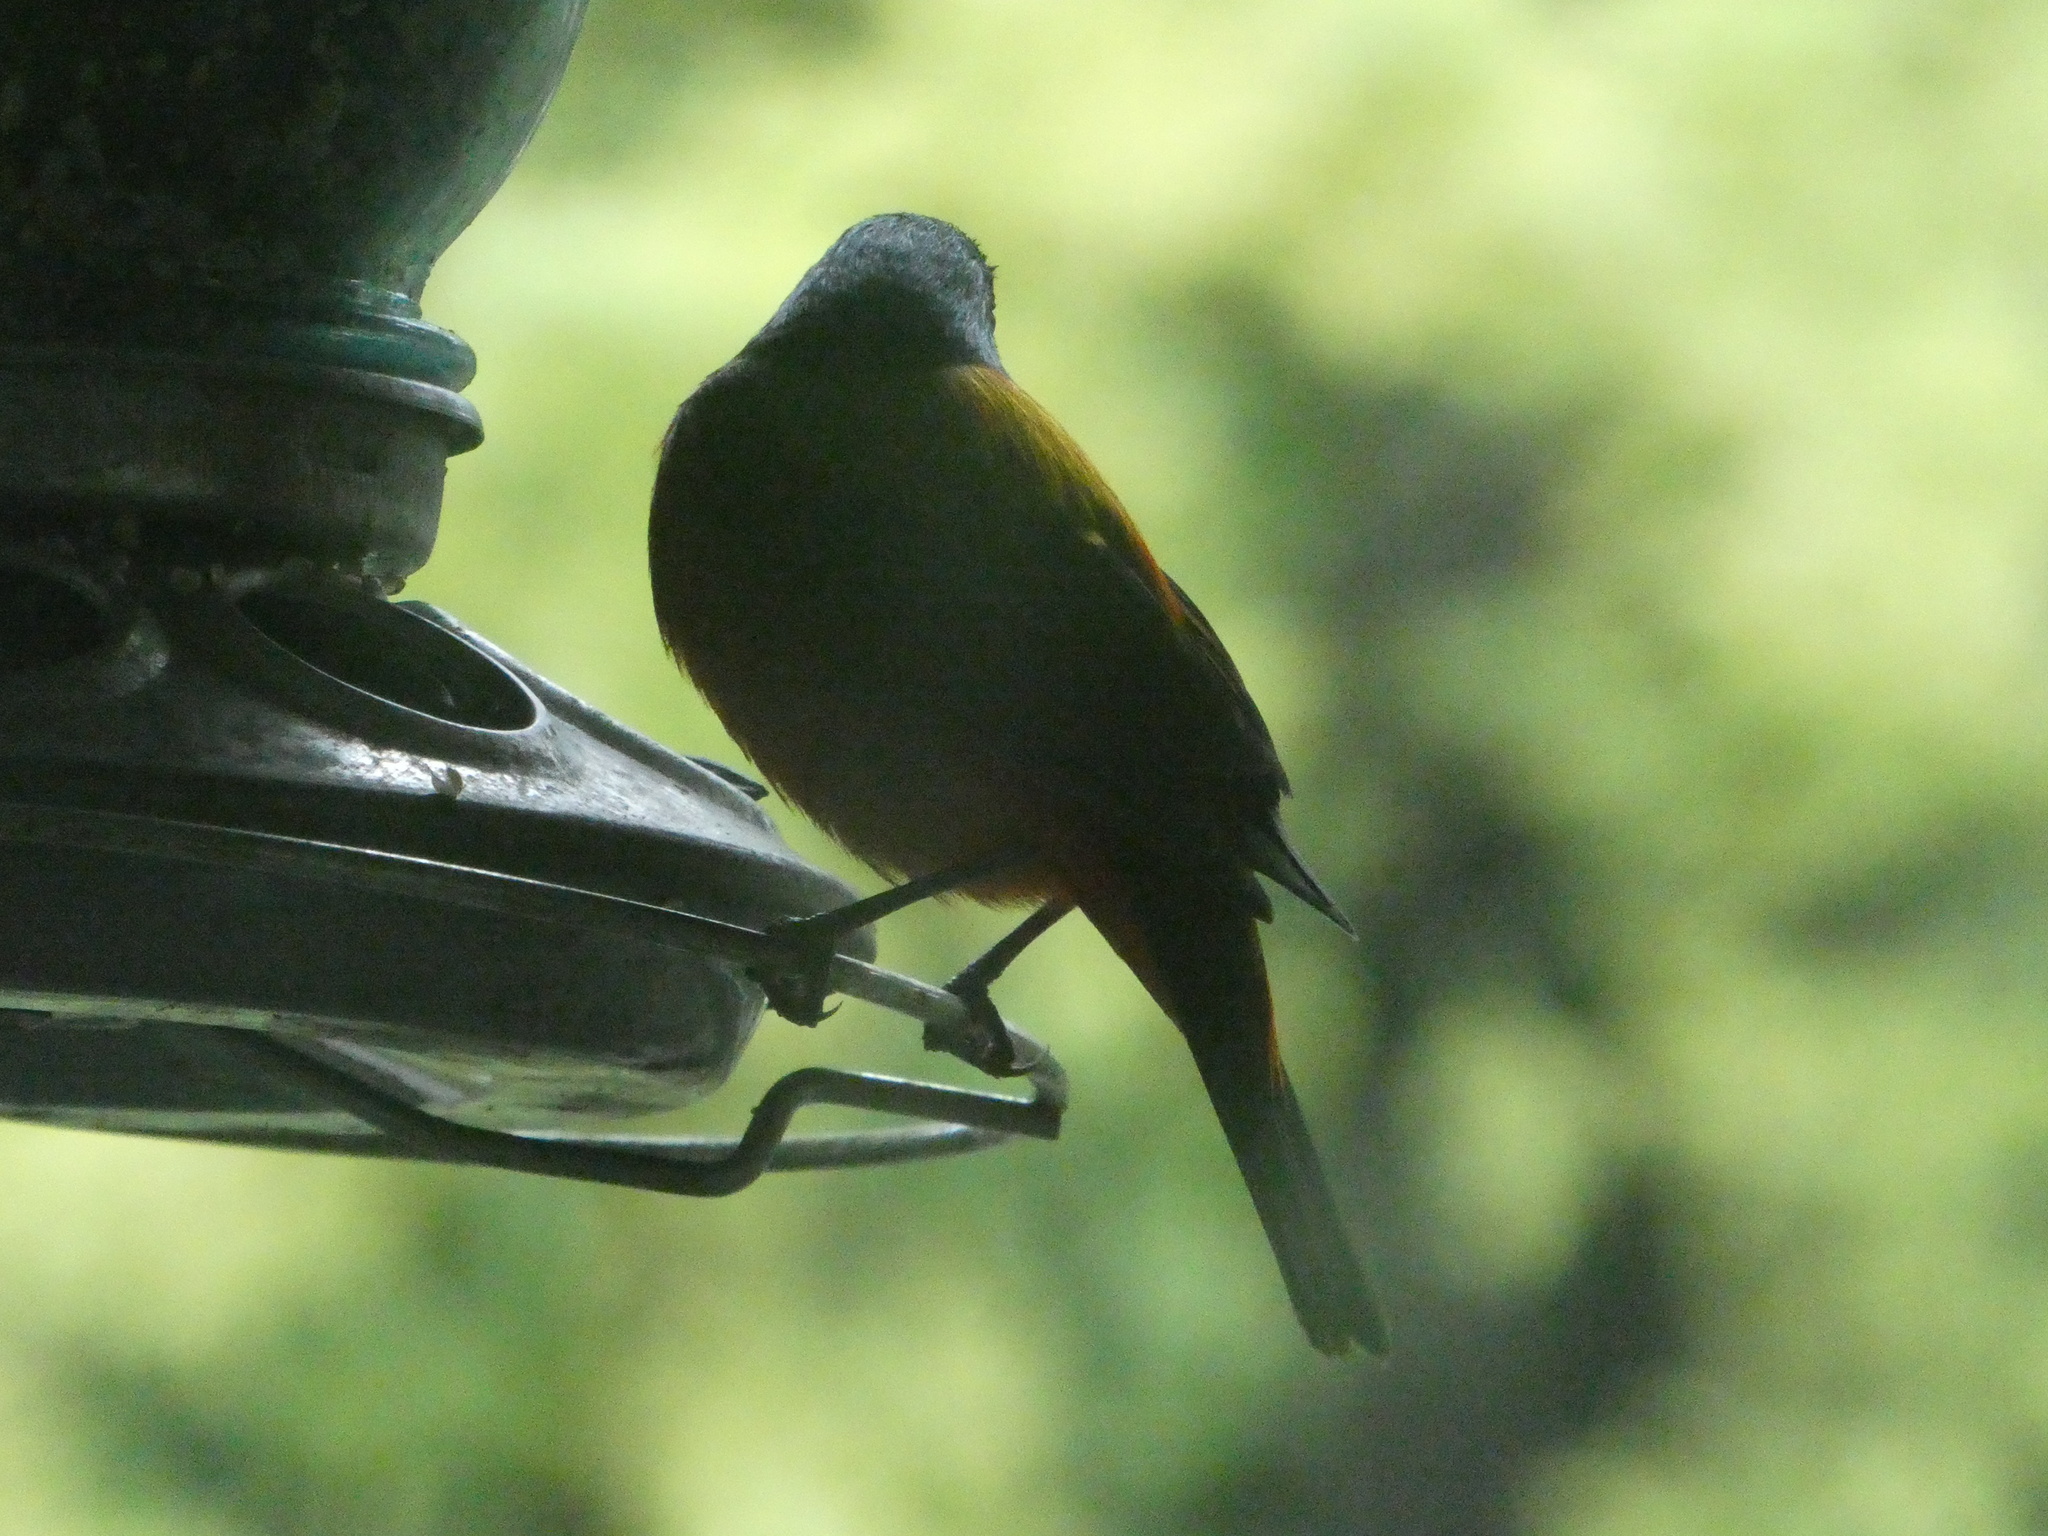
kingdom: Animalia
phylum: Chordata
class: Aves
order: Passeriformes
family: Cardinalidae
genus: Passerina
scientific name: Passerina ciris
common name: Painted bunting
